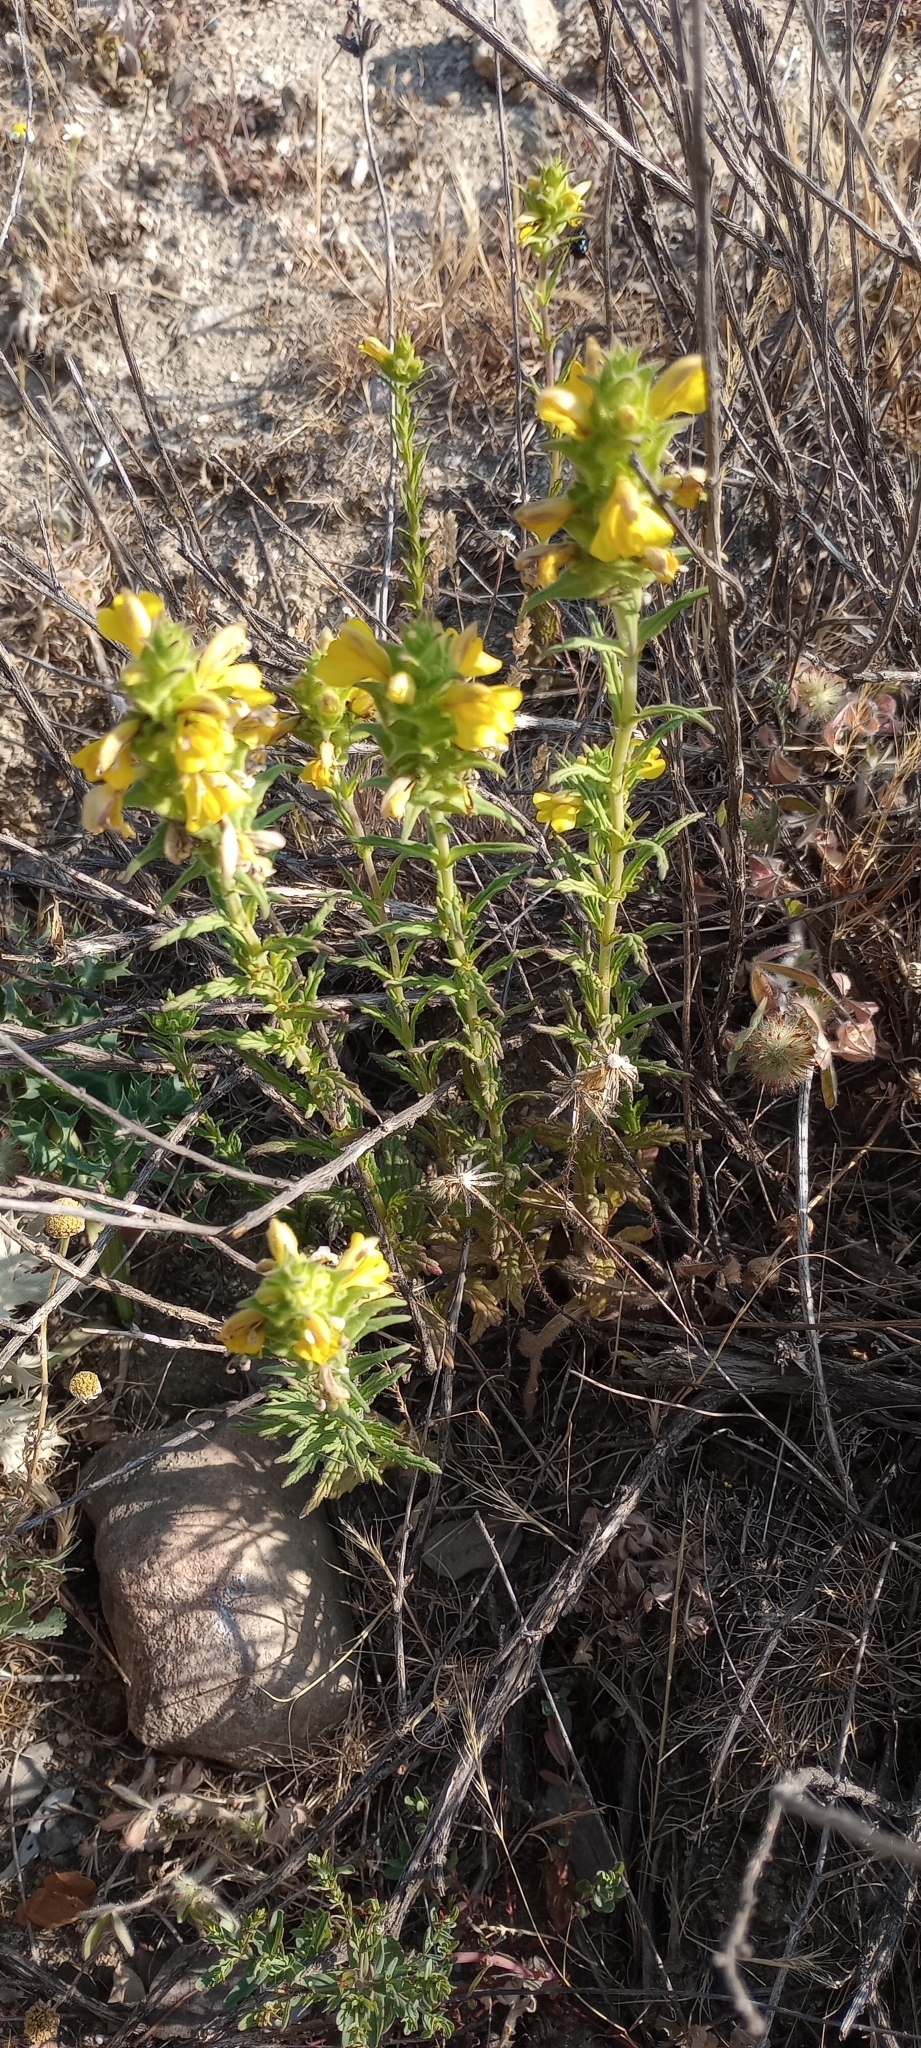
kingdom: Plantae
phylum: Tracheophyta
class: Magnoliopsida
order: Lamiales
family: Orobanchaceae
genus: Bellardia
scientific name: Bellardia trixago
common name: Mediterranean lineseed
